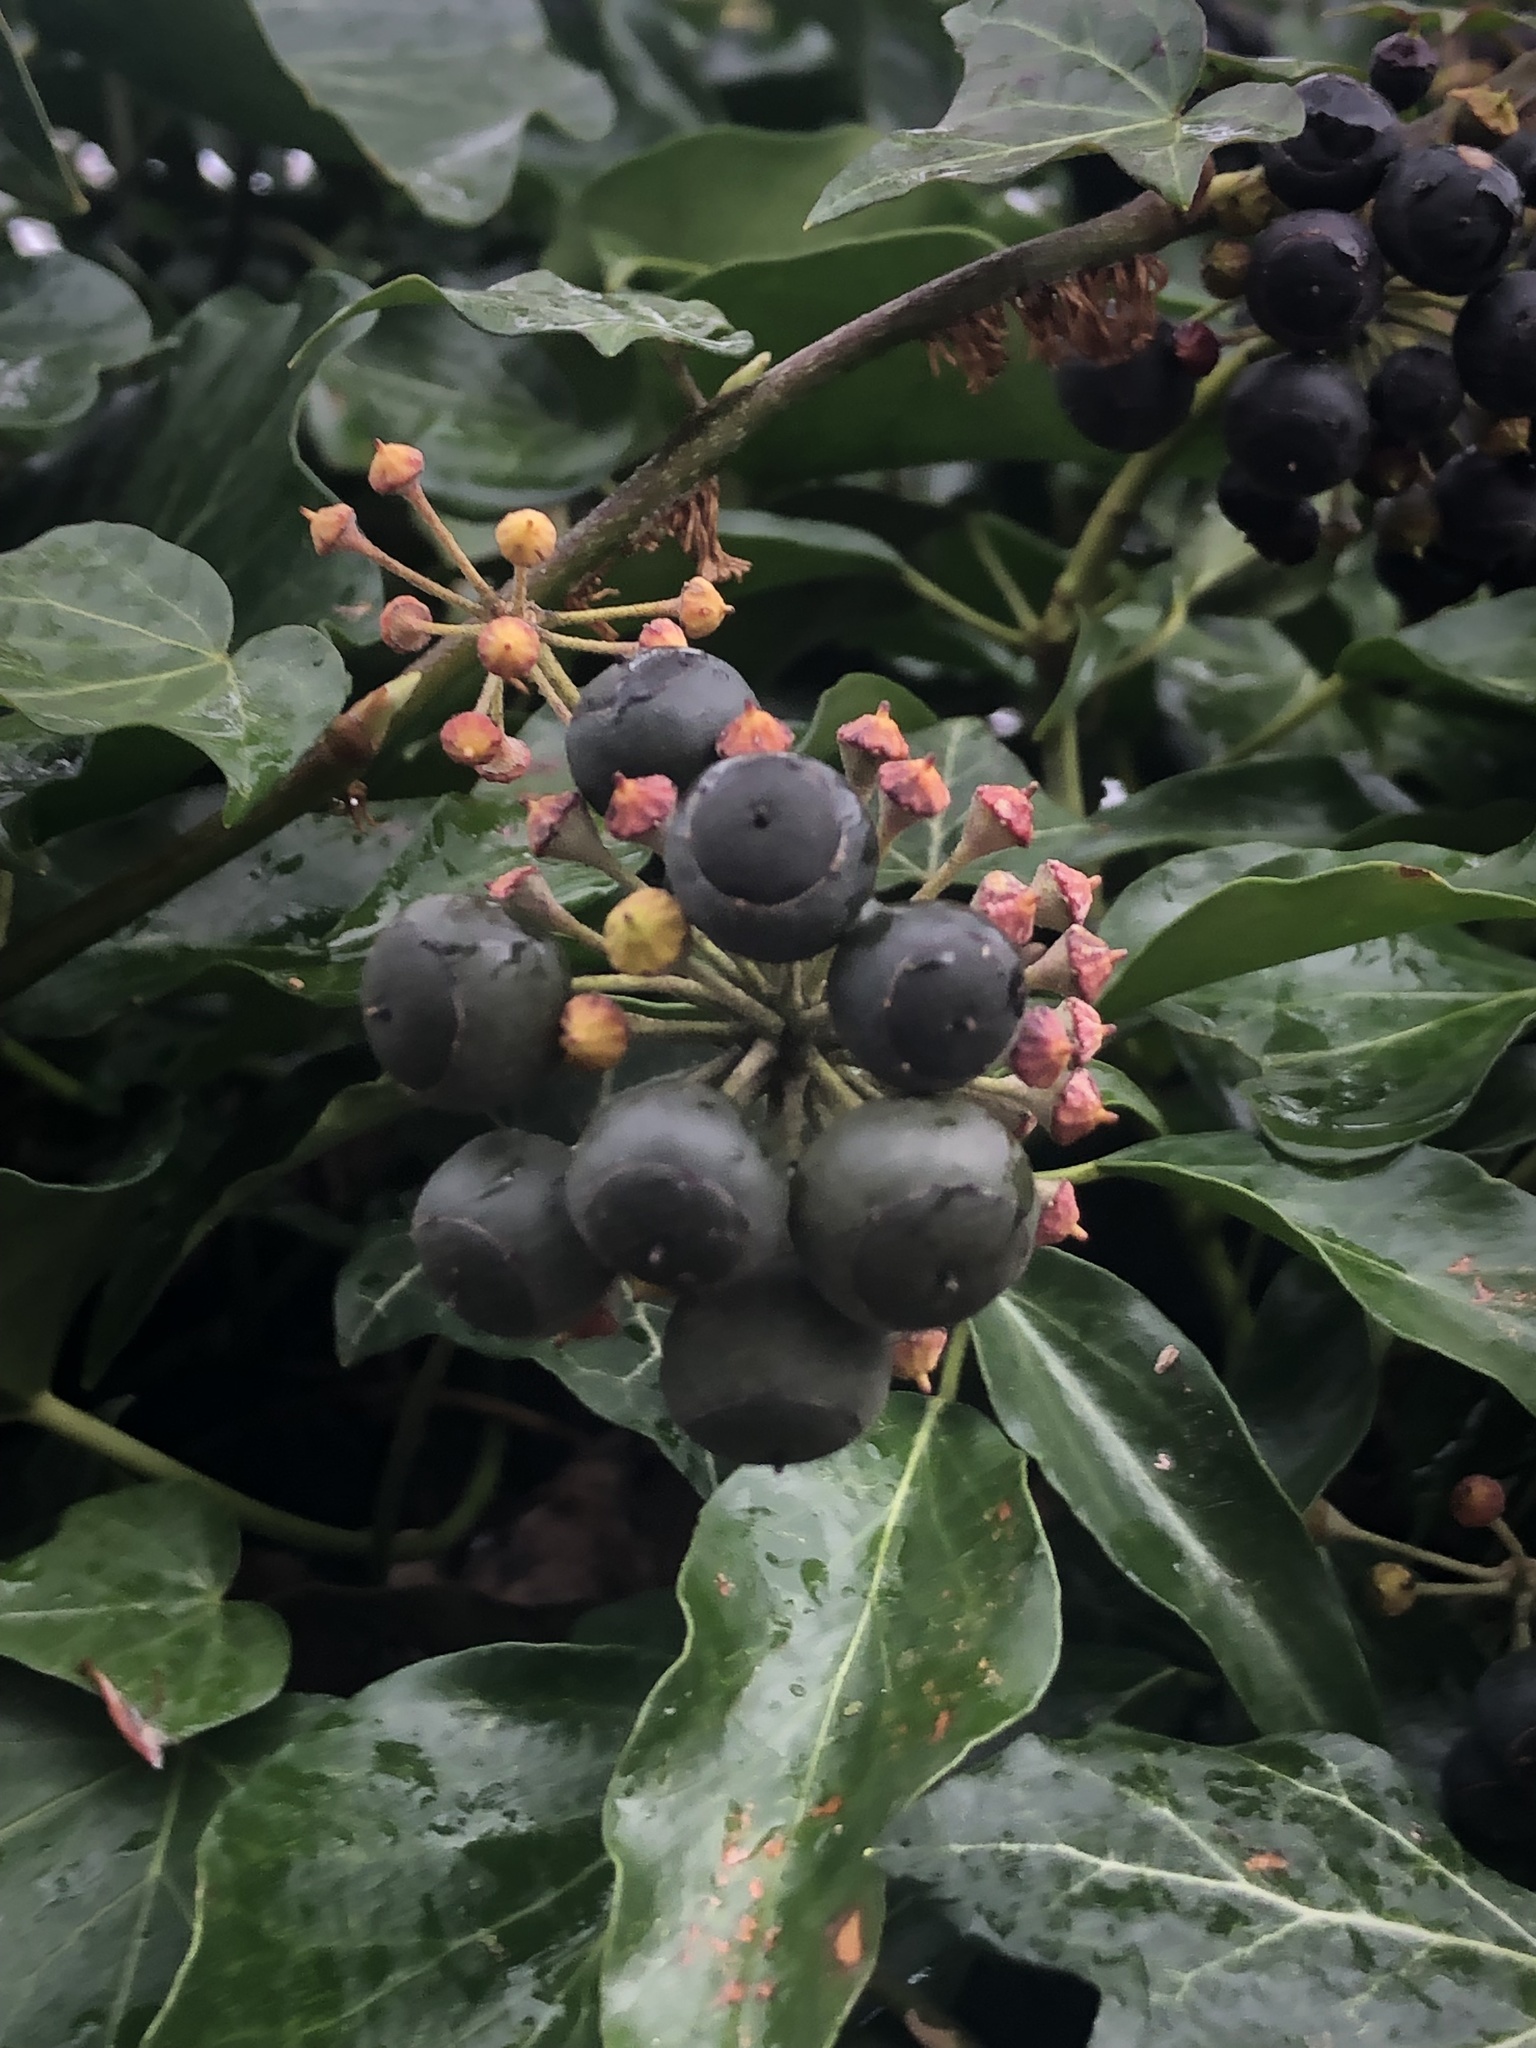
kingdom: Plantae
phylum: Tracheophyta
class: Magnoliopsida
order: Apiales
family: Araliaceae
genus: Hedera
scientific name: Hedera helix
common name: Ivy
